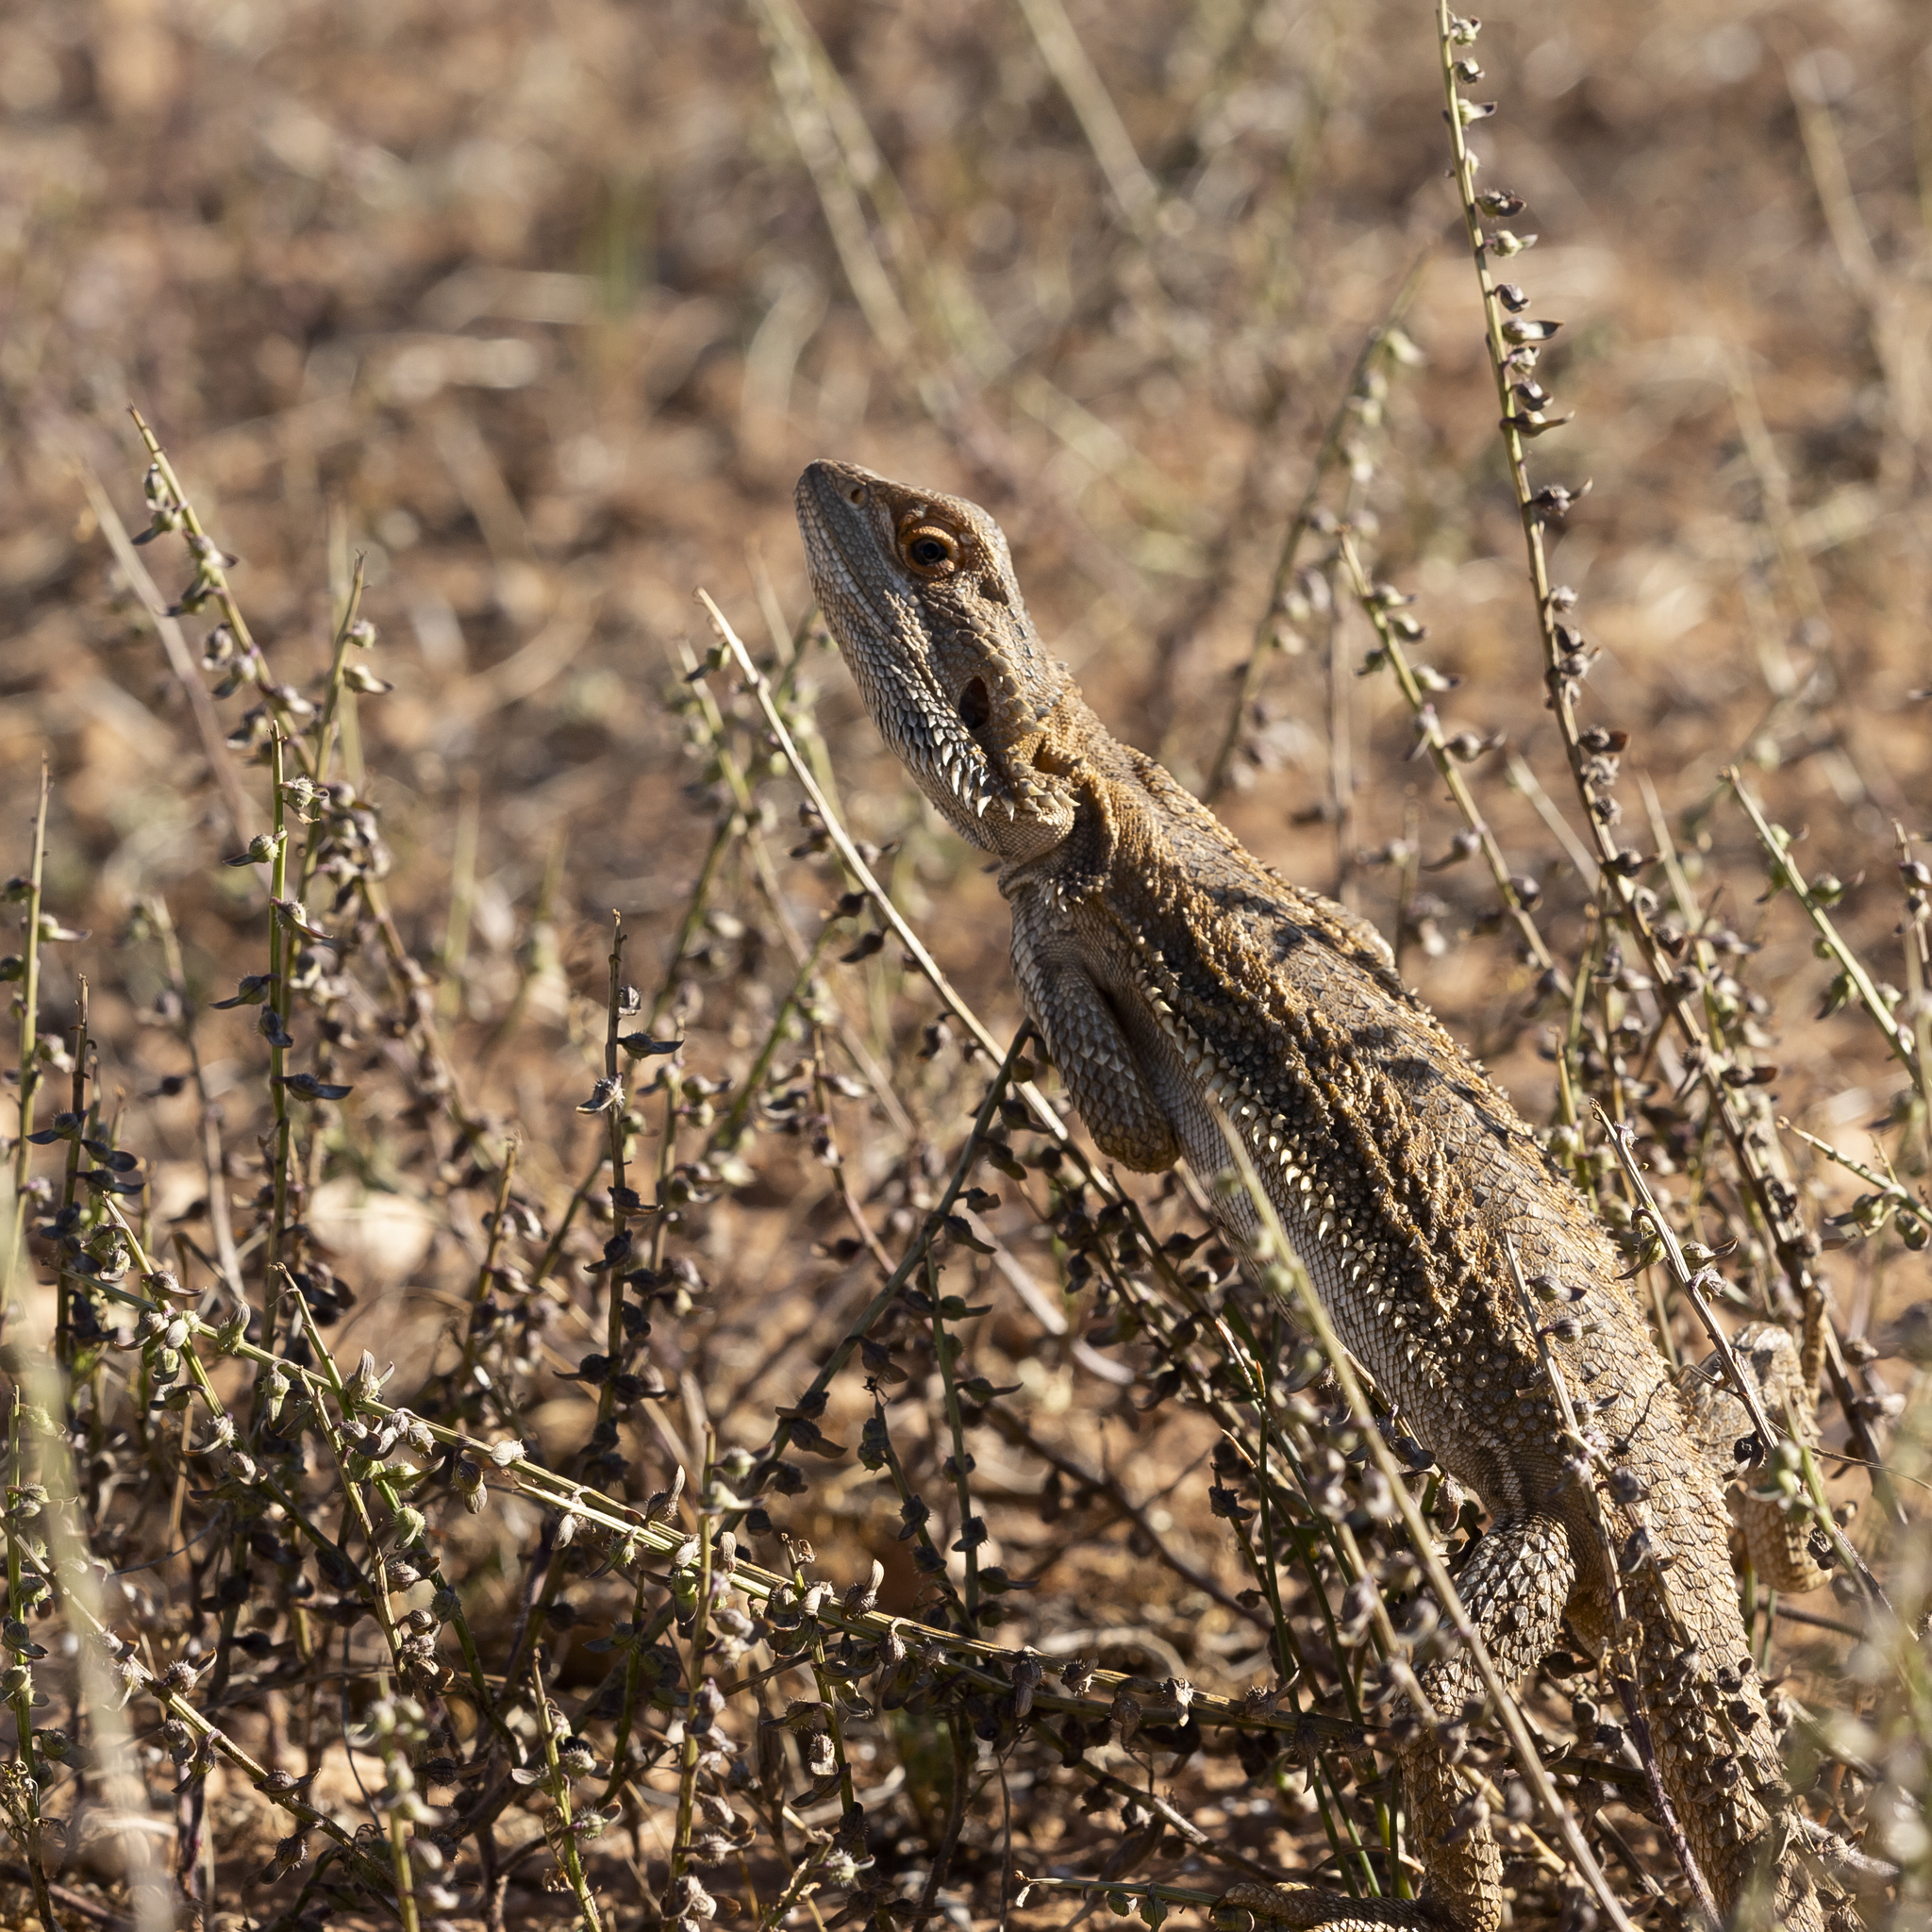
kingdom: Animalia
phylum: Chordata
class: Squamata
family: Agamidae
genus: Pogona
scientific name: Pogona vitticeps
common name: Central bearded dragon
